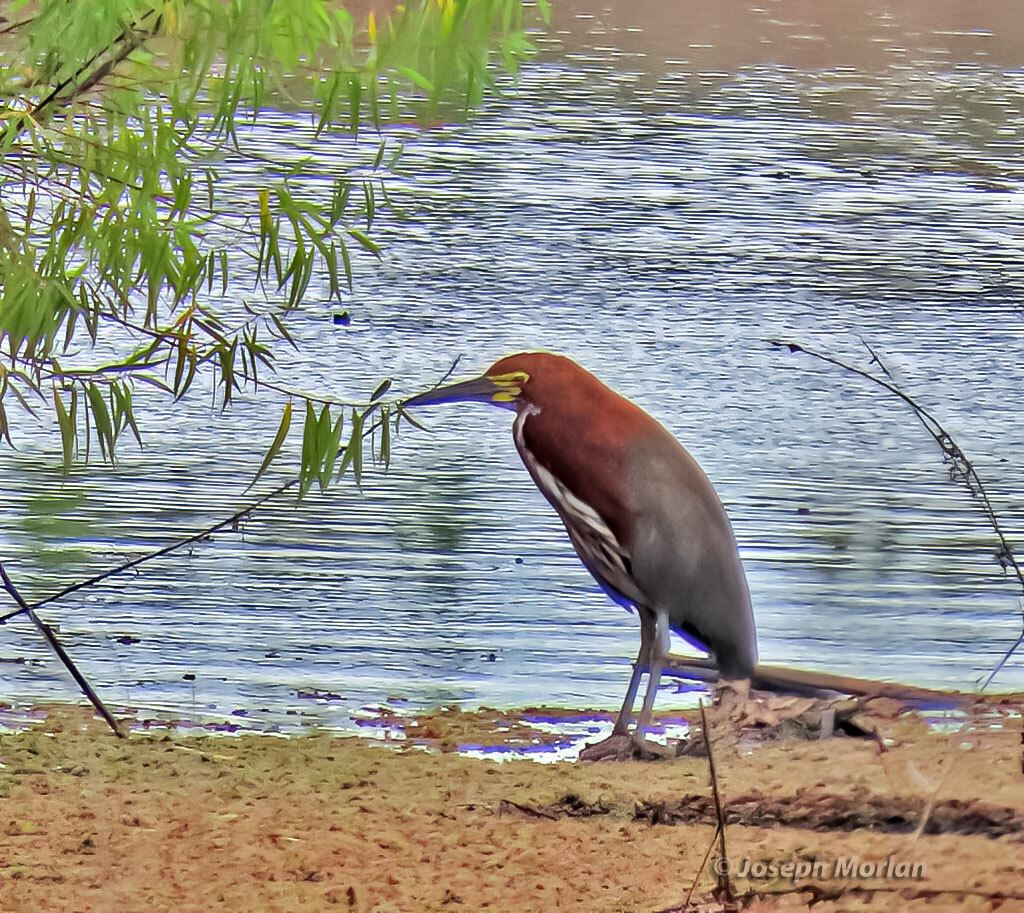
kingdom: Animalia
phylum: Chordata
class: Aves
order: Pelecaniformes
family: Ardeidae
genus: Tigrisoma
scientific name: Tigrisoma lineatum
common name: Rufescent tiger-heron
